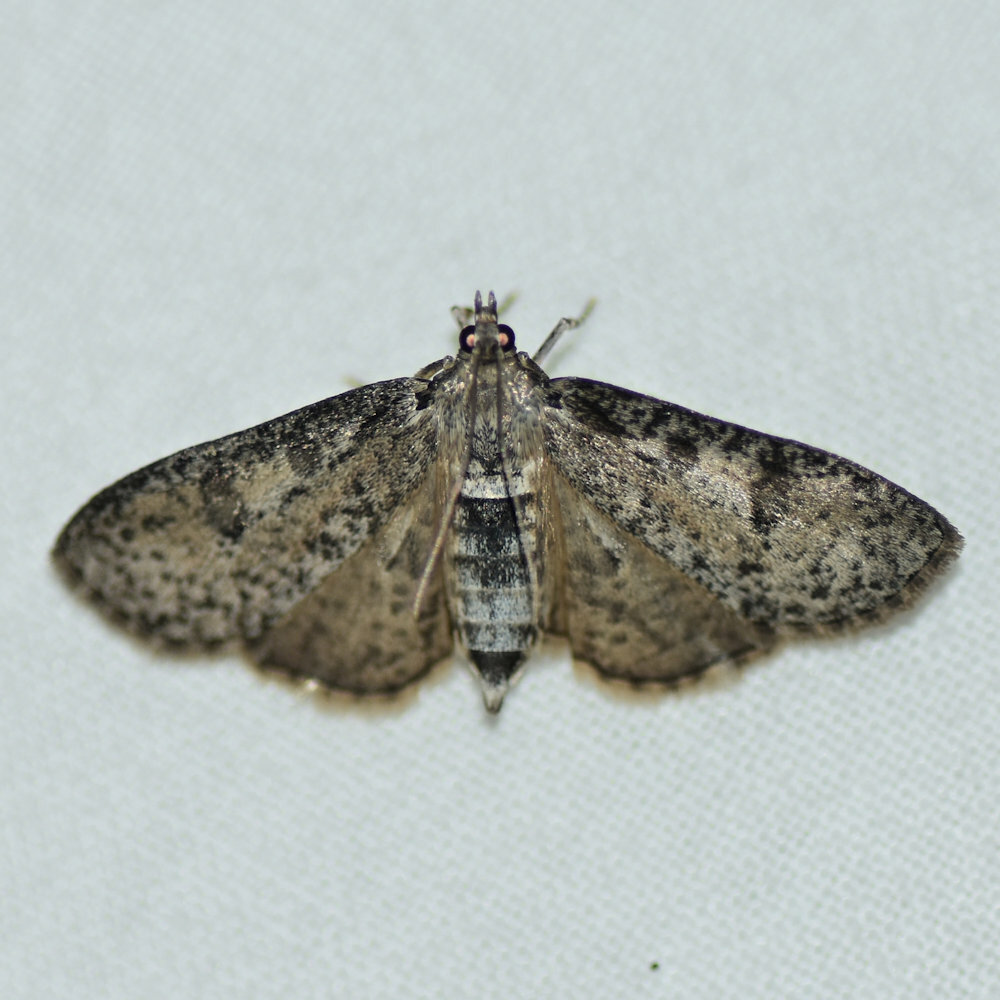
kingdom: Animalia
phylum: Arthropoda
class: Insecta
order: Lepidoptera
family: Crambidae
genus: Palpita
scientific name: Palpita magniferalis
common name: Splendid palpita moth
